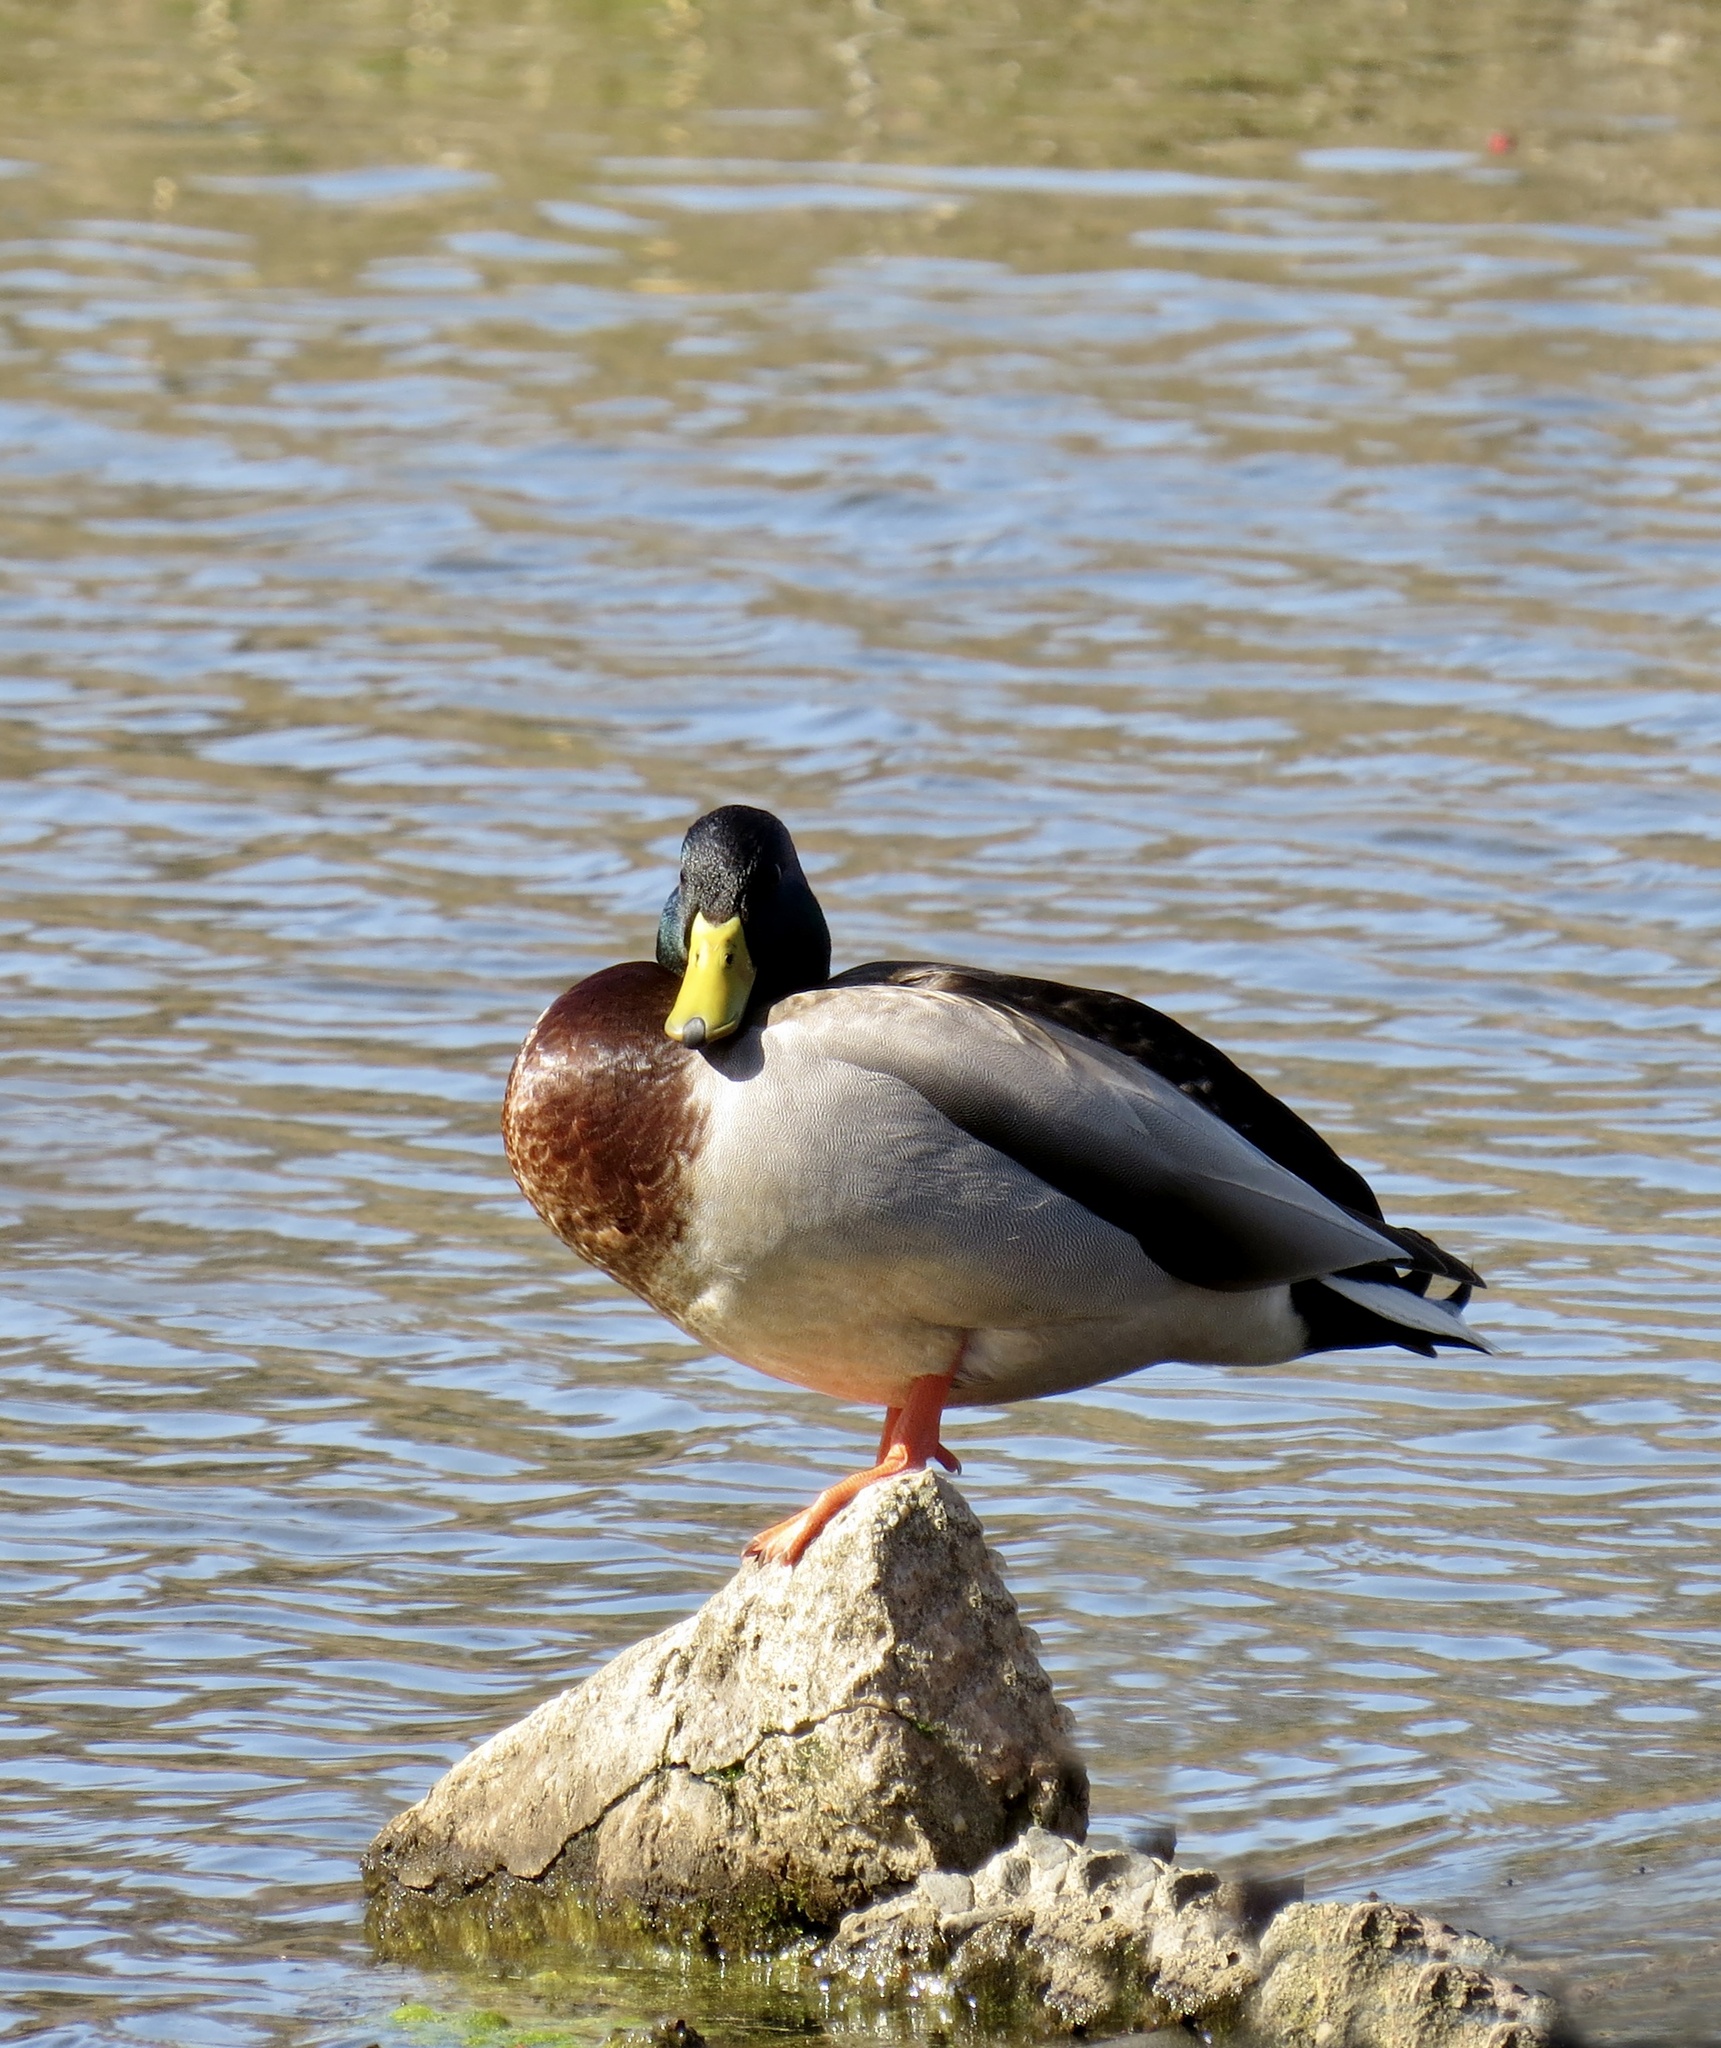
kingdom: Animalia
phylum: Chordata
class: Aves
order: Anseriformes
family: Anatidae
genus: Anas
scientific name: Anas platyrhynchos
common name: Mallard
